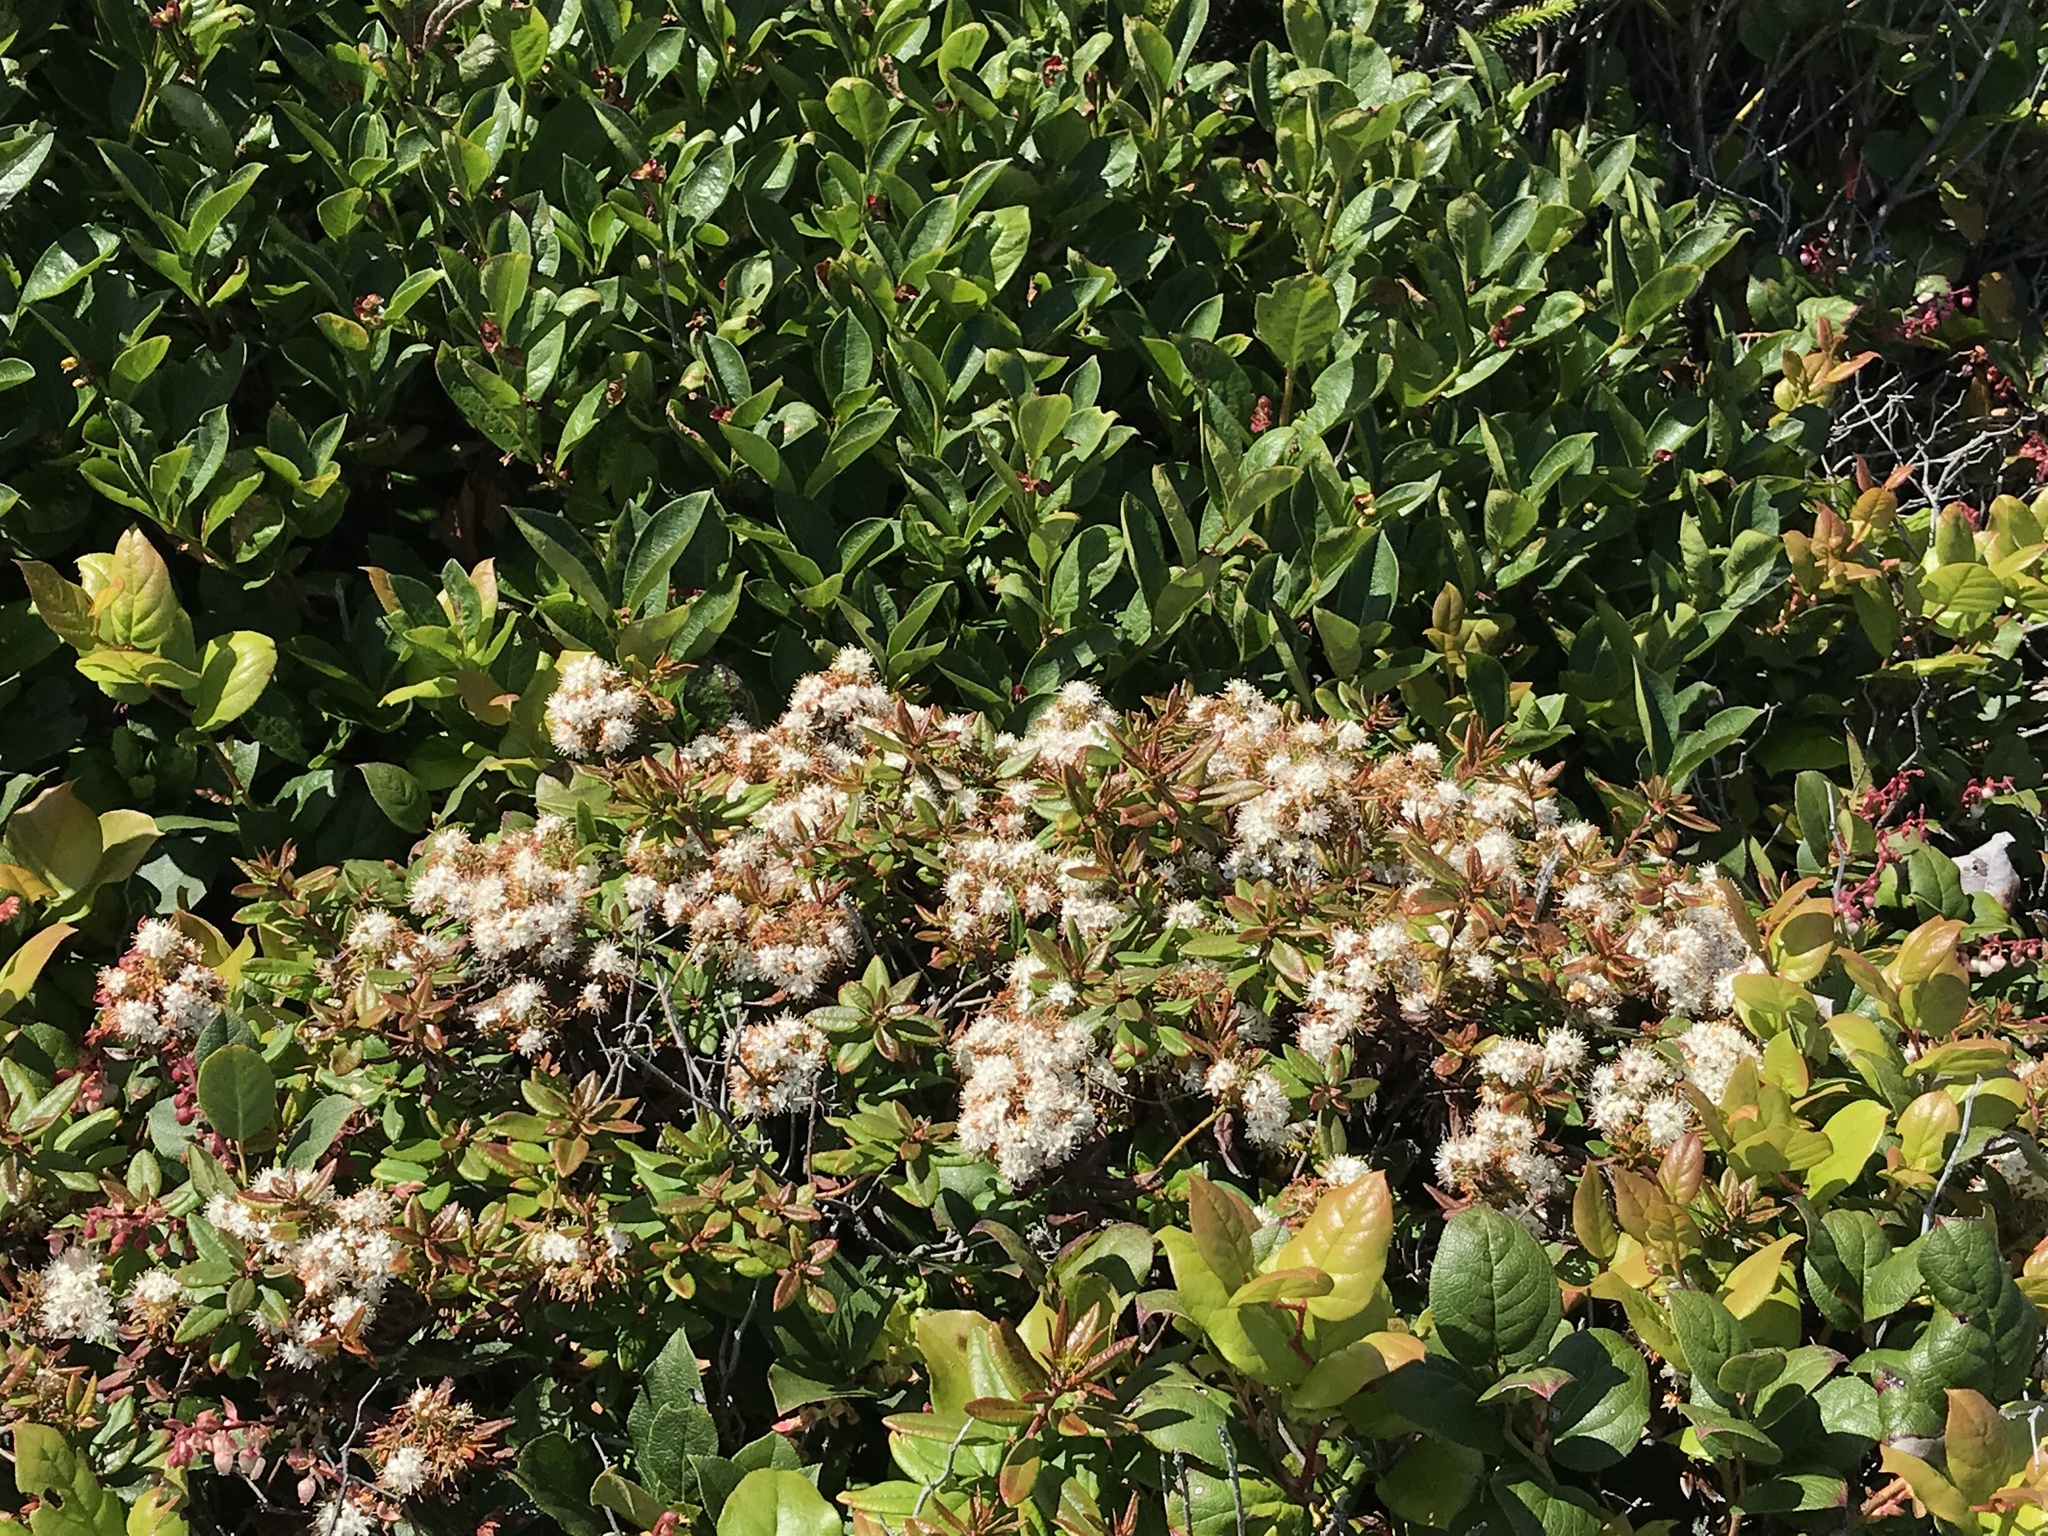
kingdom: Plantae
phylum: Tracheophyta
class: Magnoliopsida
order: Ericales
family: Ericaceae
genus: Rhododendron
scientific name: Rhododendron columbianum
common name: Western labrador tea
